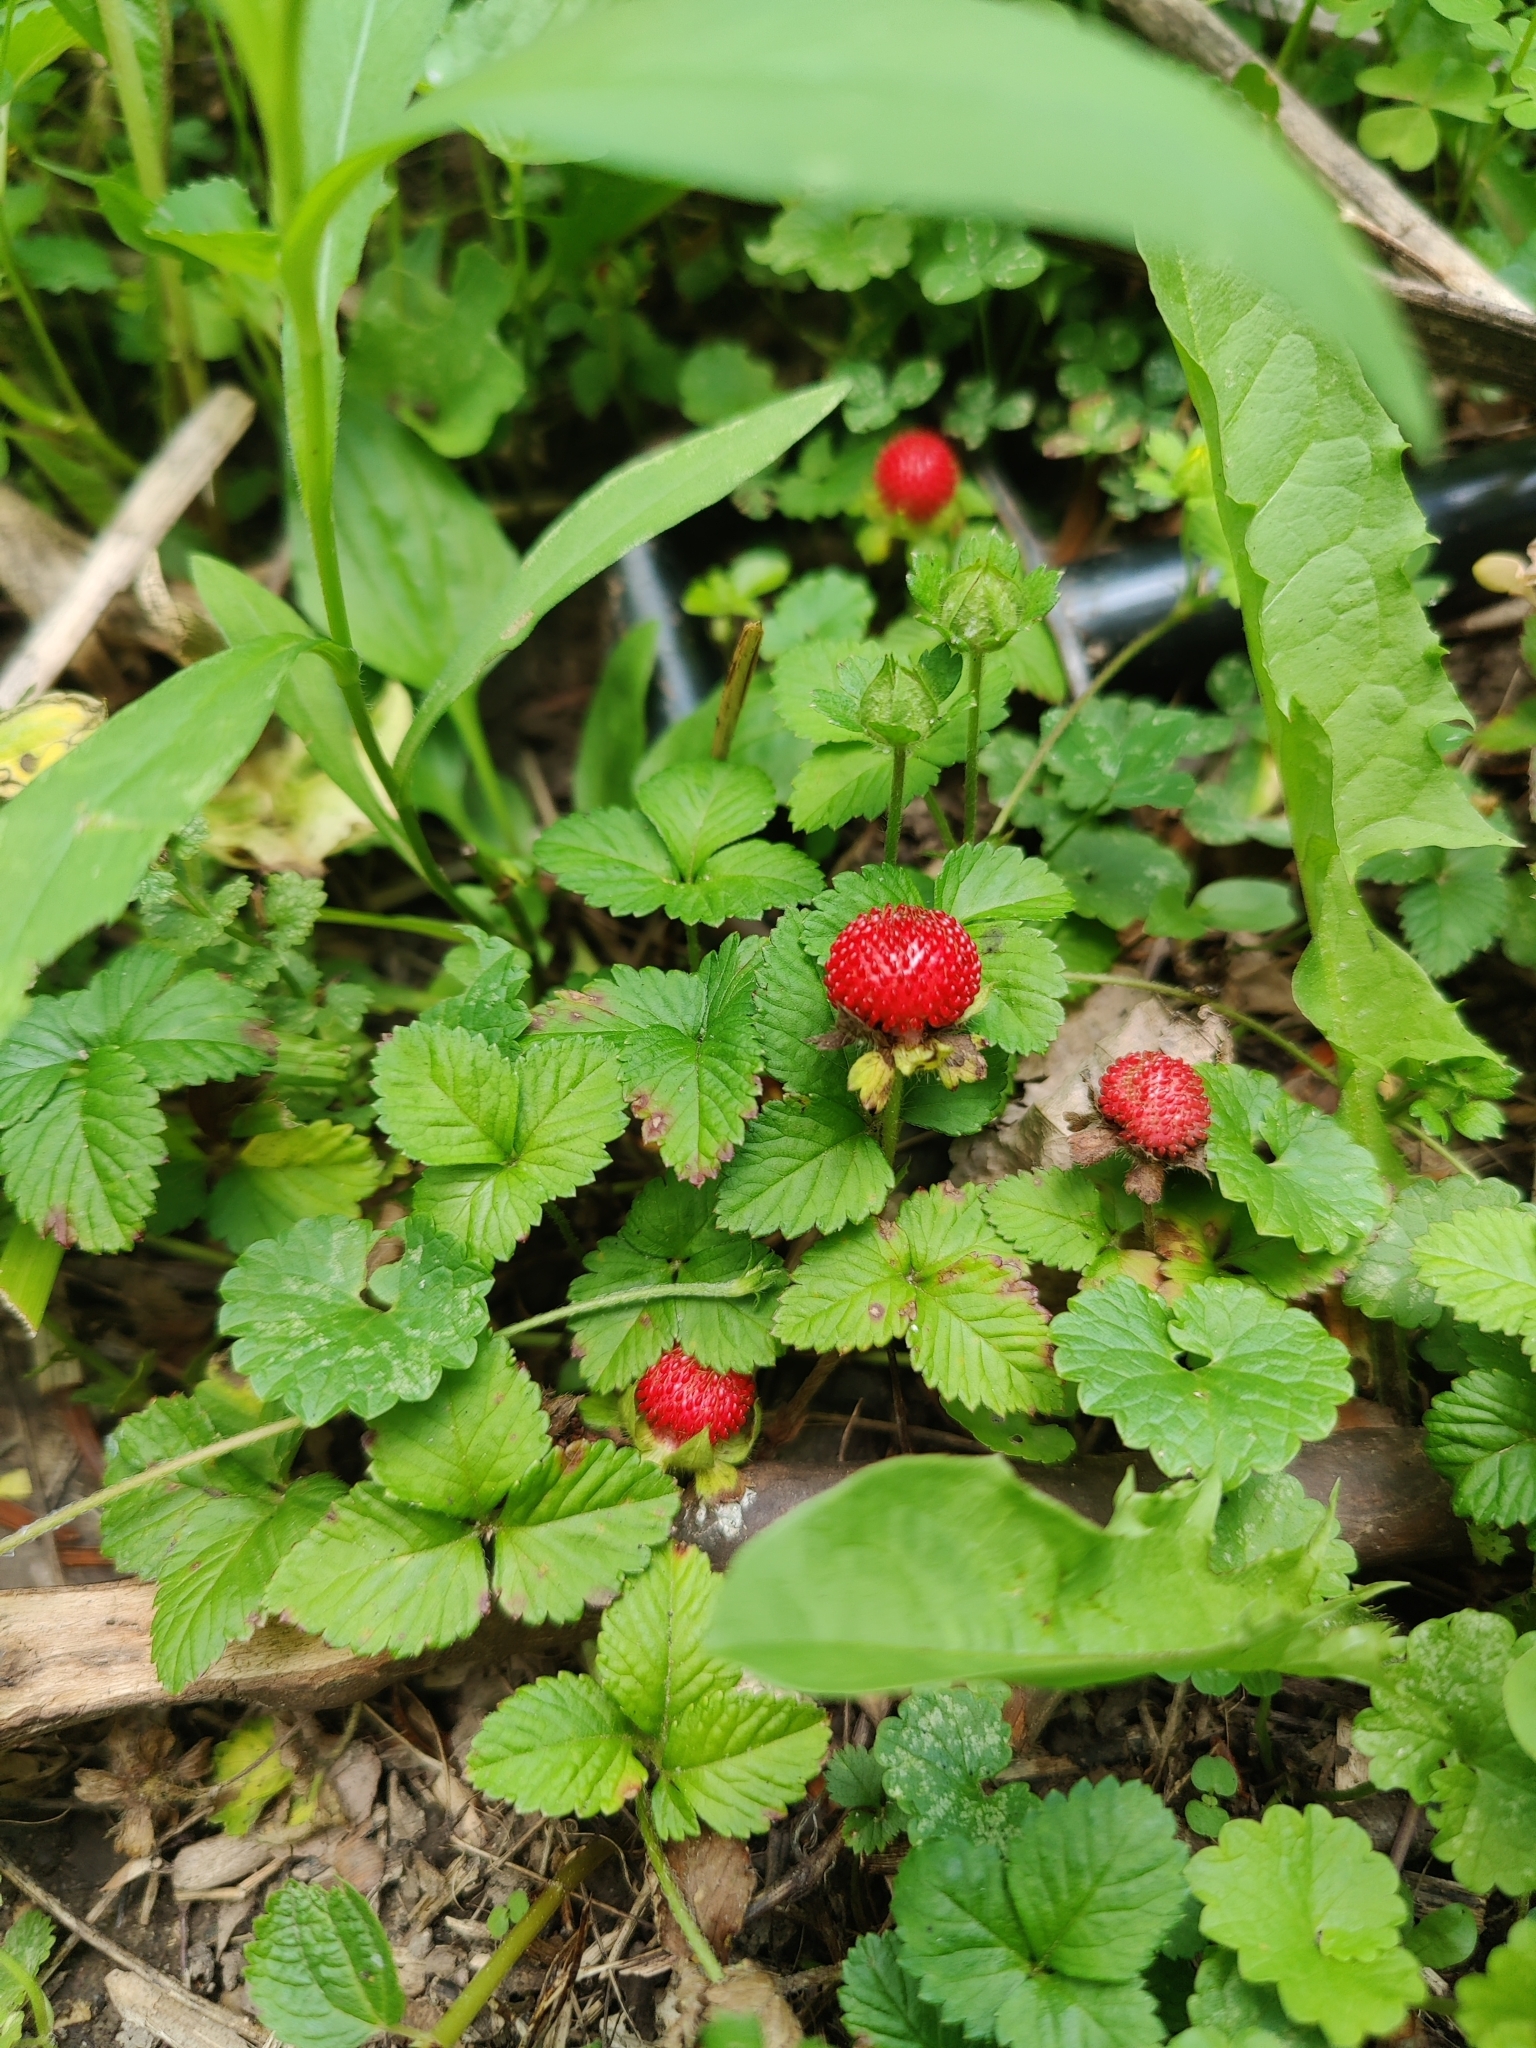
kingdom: Plantae
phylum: Tracheophyta
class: Magnoliopsida
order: Rosales
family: Rosaceae
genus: Potentilla
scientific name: Potentilla indica
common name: Yellow-flowered strawberry
